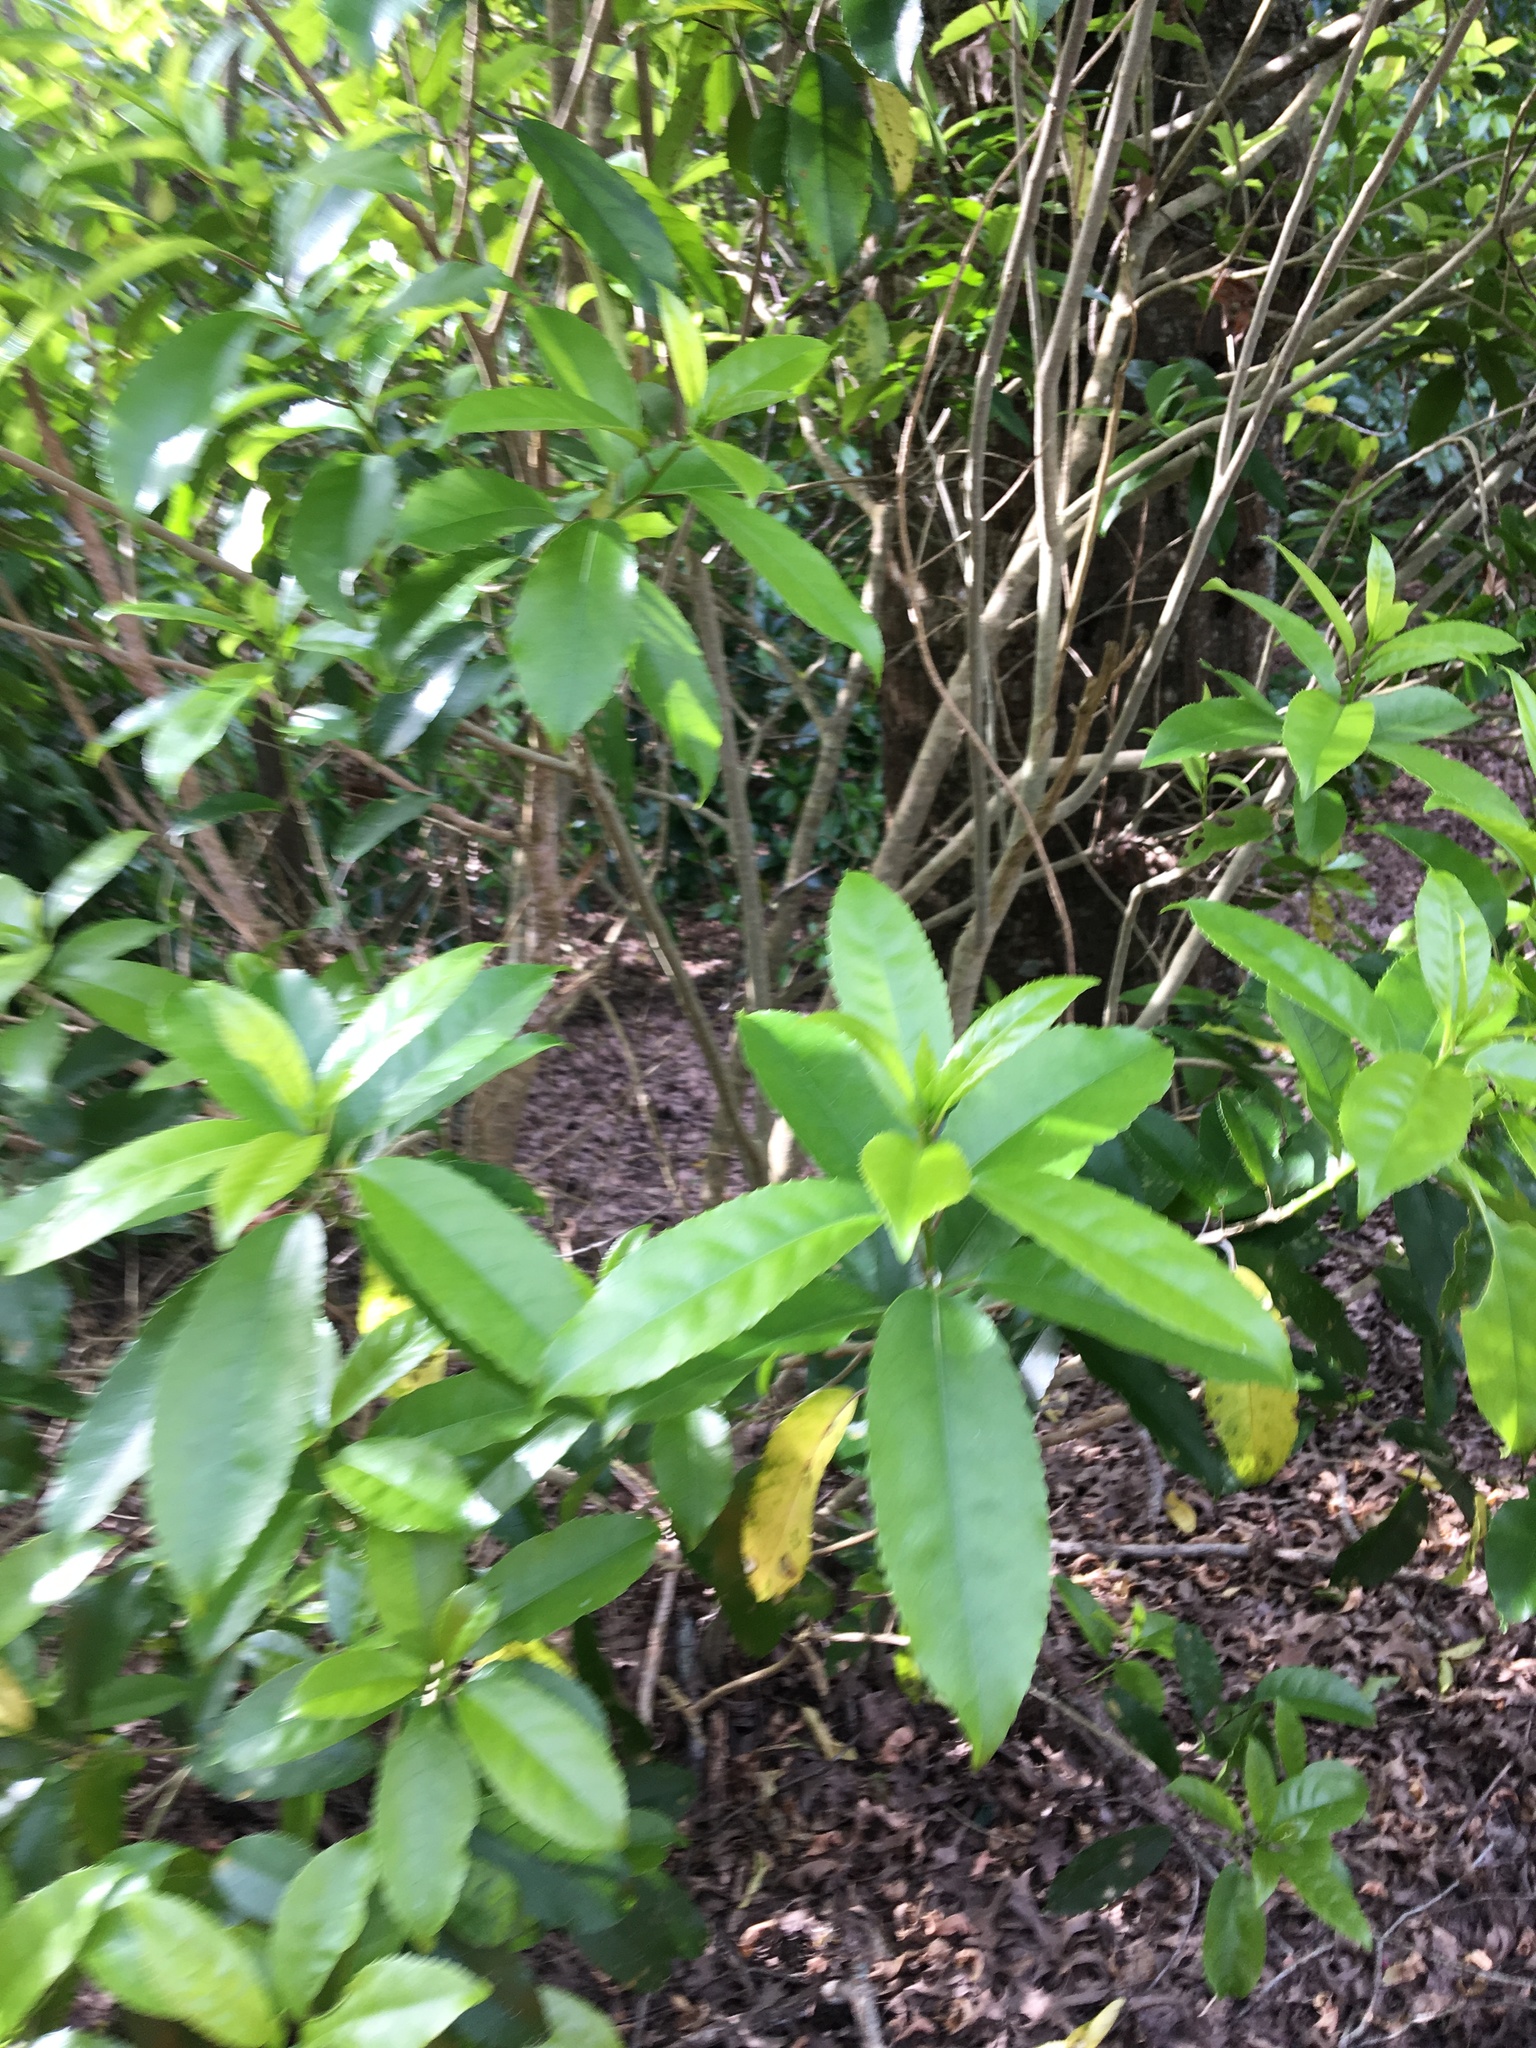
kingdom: Plantae
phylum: Tracheophyta
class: Magnoliopsida
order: Malpighiales
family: Violaceae
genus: Melicytus
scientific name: Melicytus ramiflorus
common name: Mahoe
